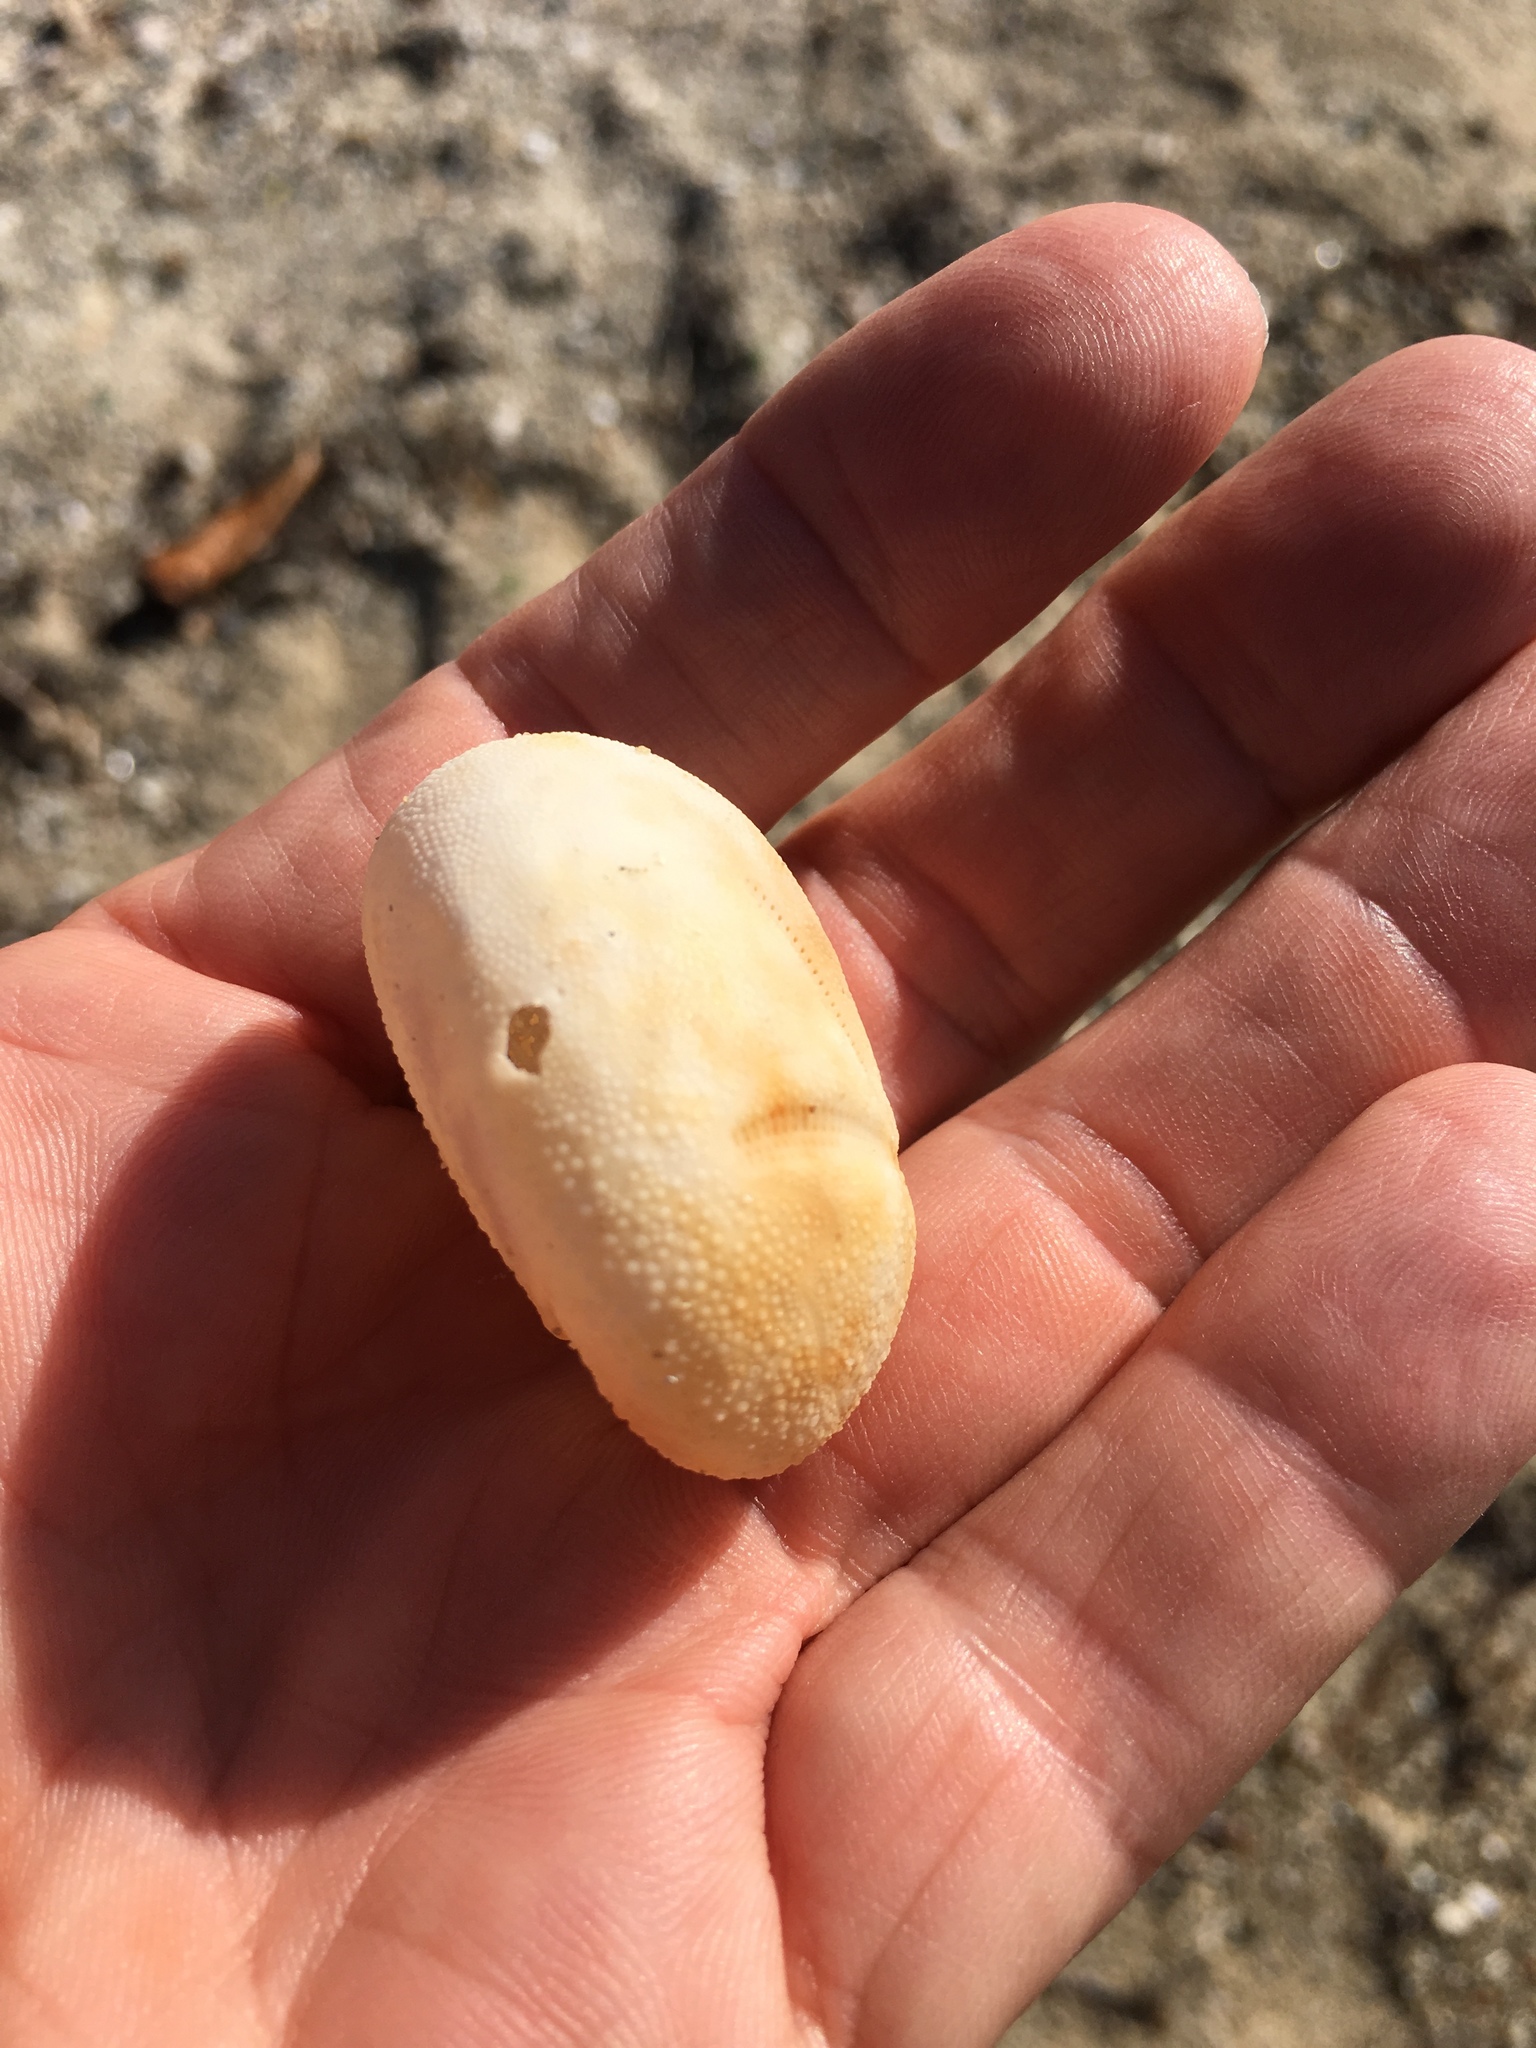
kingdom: Animalia
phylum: Echinodermata
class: Echinoidea
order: Spatangoida
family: Brissidae
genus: Brissus
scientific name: Brissus unicolor
